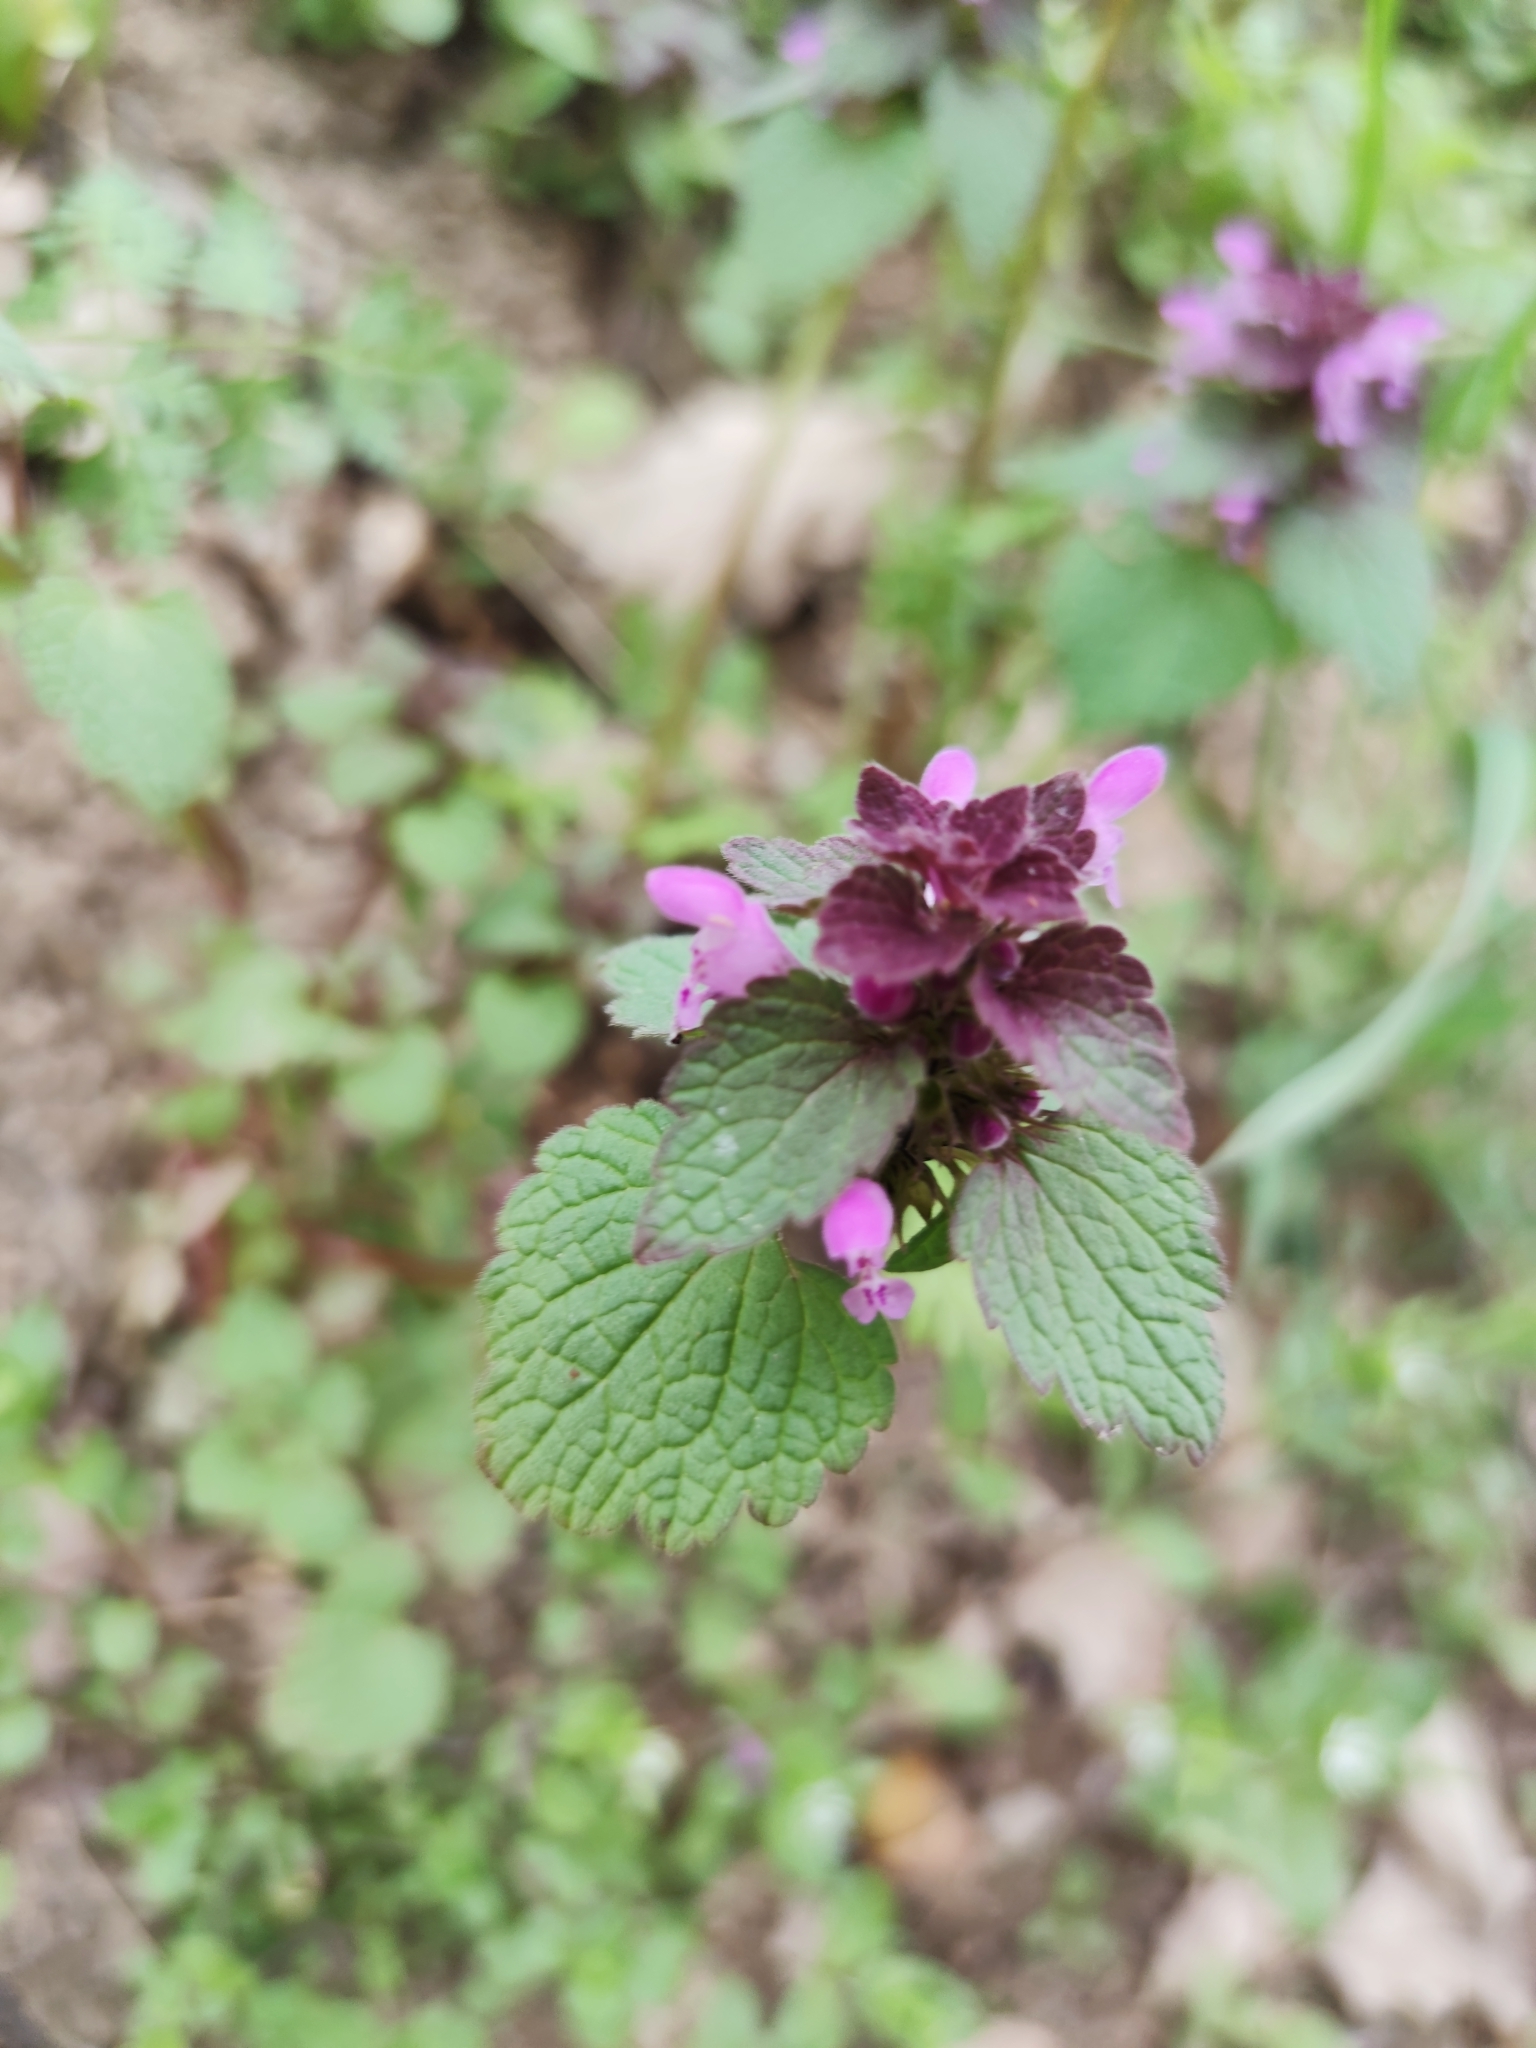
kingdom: Plantae
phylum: Tracheophyta
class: Magnoliopsida
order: Lamiales
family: Lamiaceae
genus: Lamium
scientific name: Lamium purpureum
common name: Red dead-nettle
